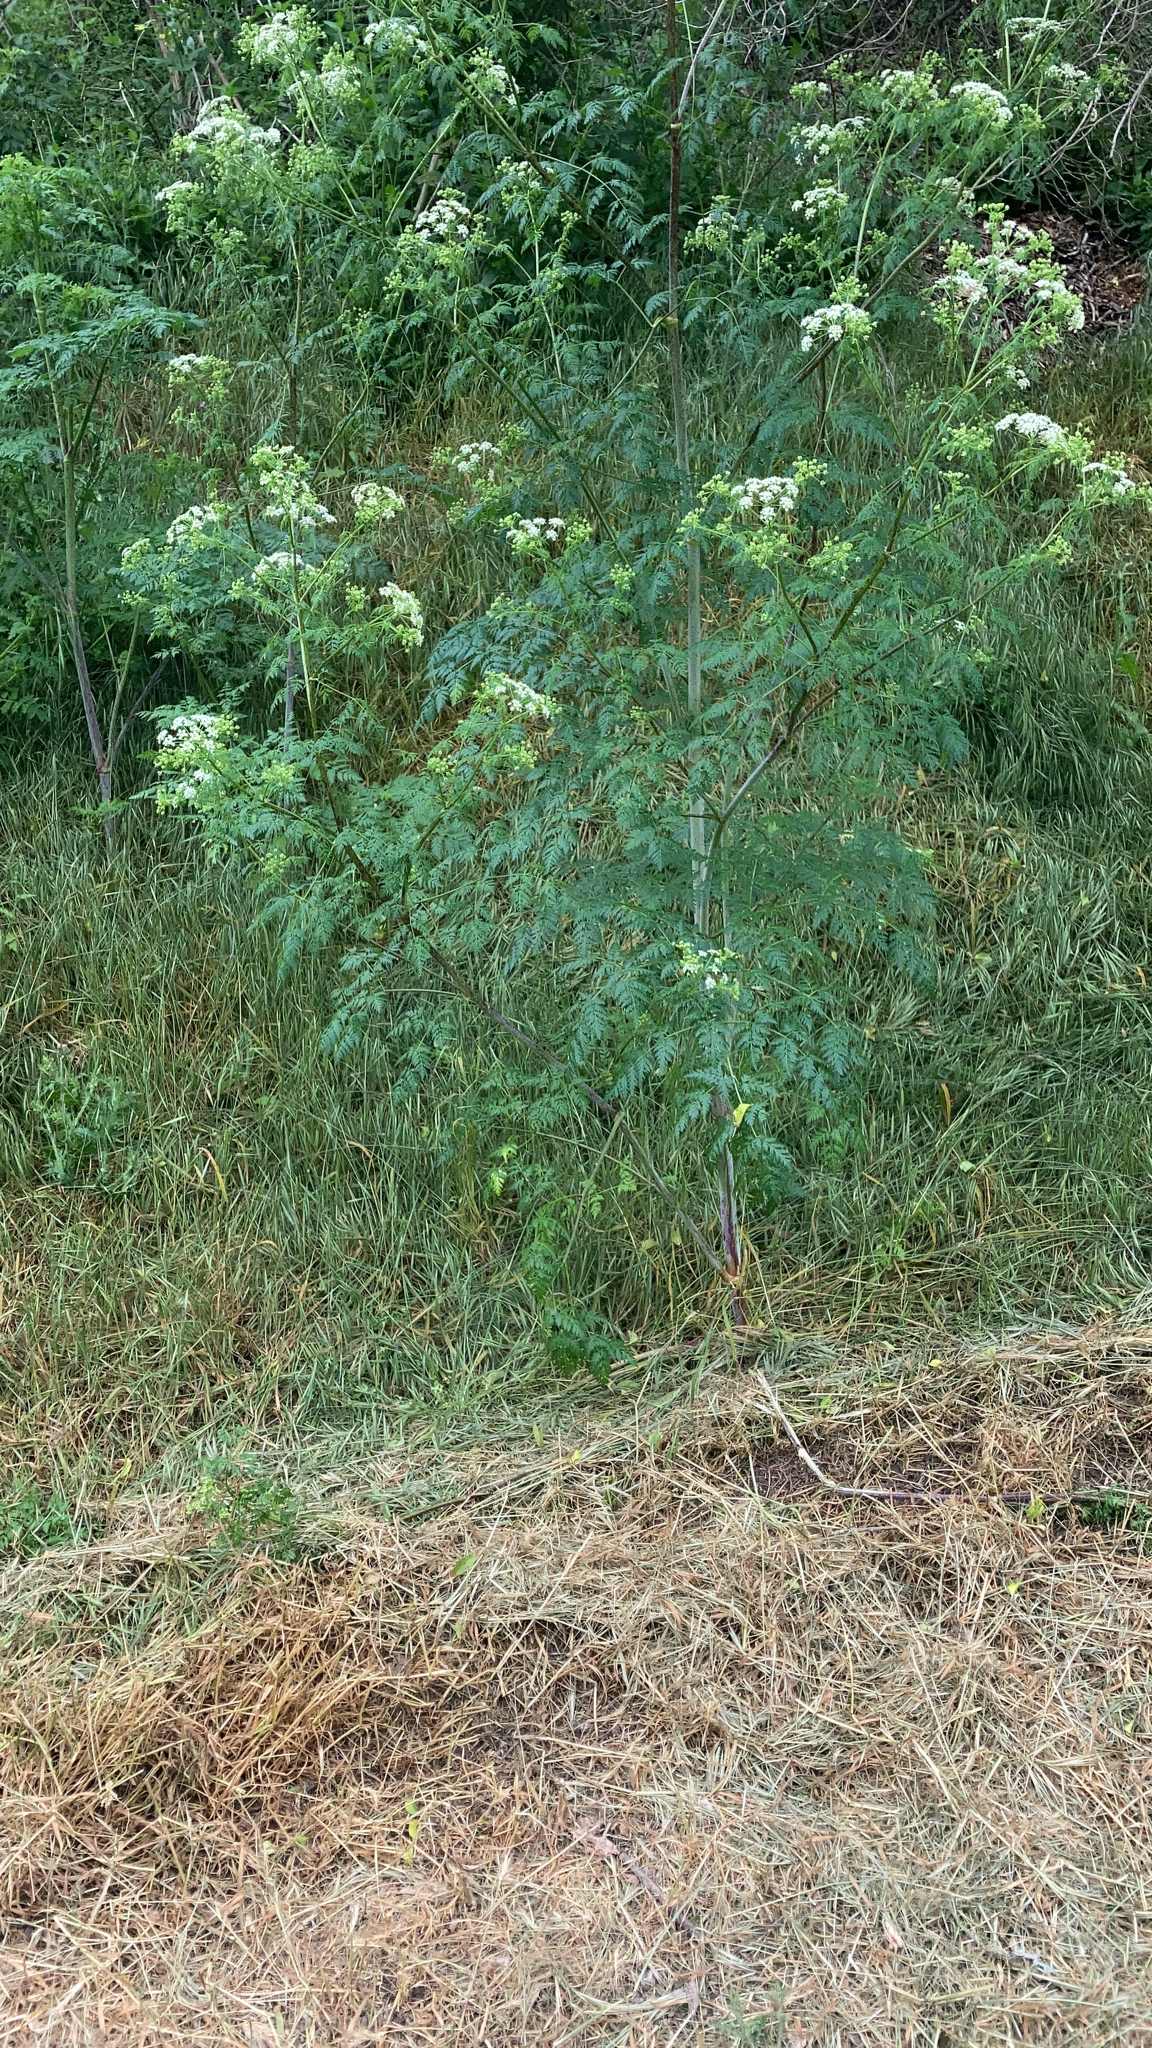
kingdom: Plantae
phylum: Tracheophyta
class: Magnoliopsida
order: Apiales
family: Apiaceae
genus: Conium
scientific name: Conium maculatum
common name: Hemlock
